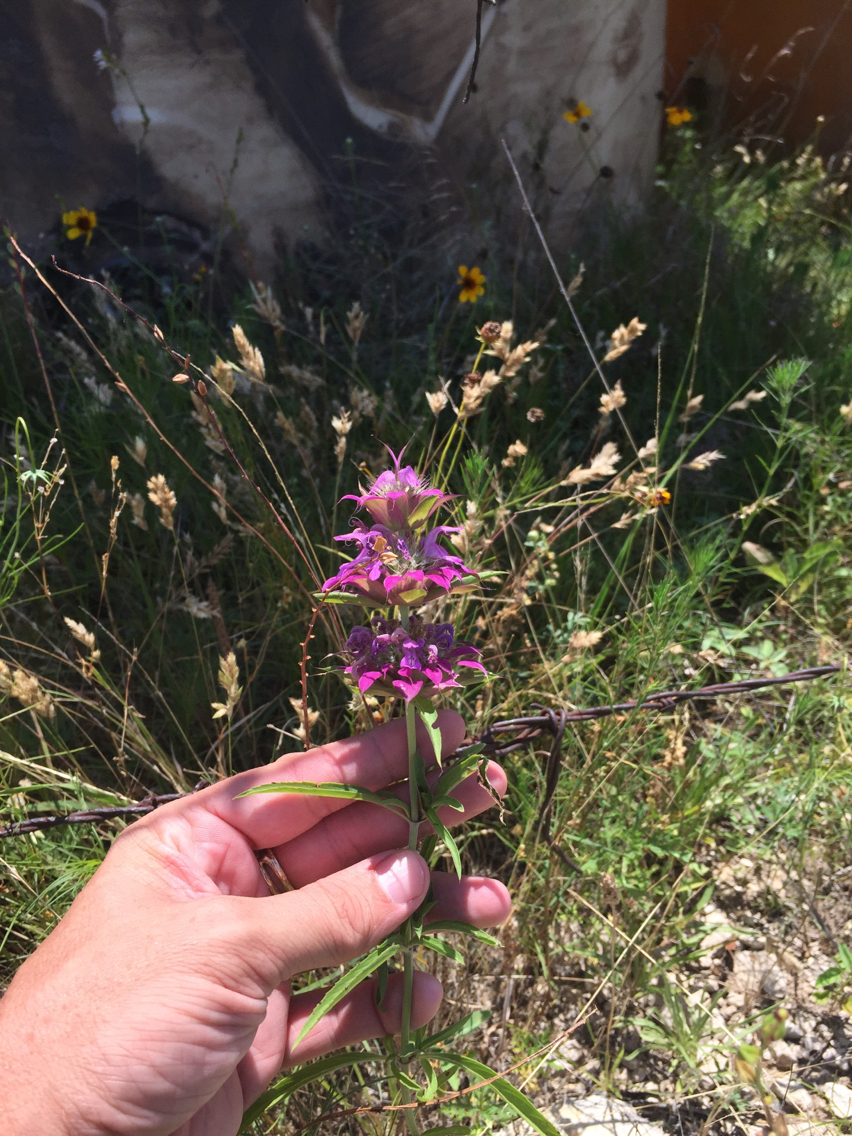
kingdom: Plantae
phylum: Tracheophyta
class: Magnoliopsida
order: Lamiales
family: Lamiaceae
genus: Monarda
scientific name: Monarda citriodora
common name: Lemon beebalm
